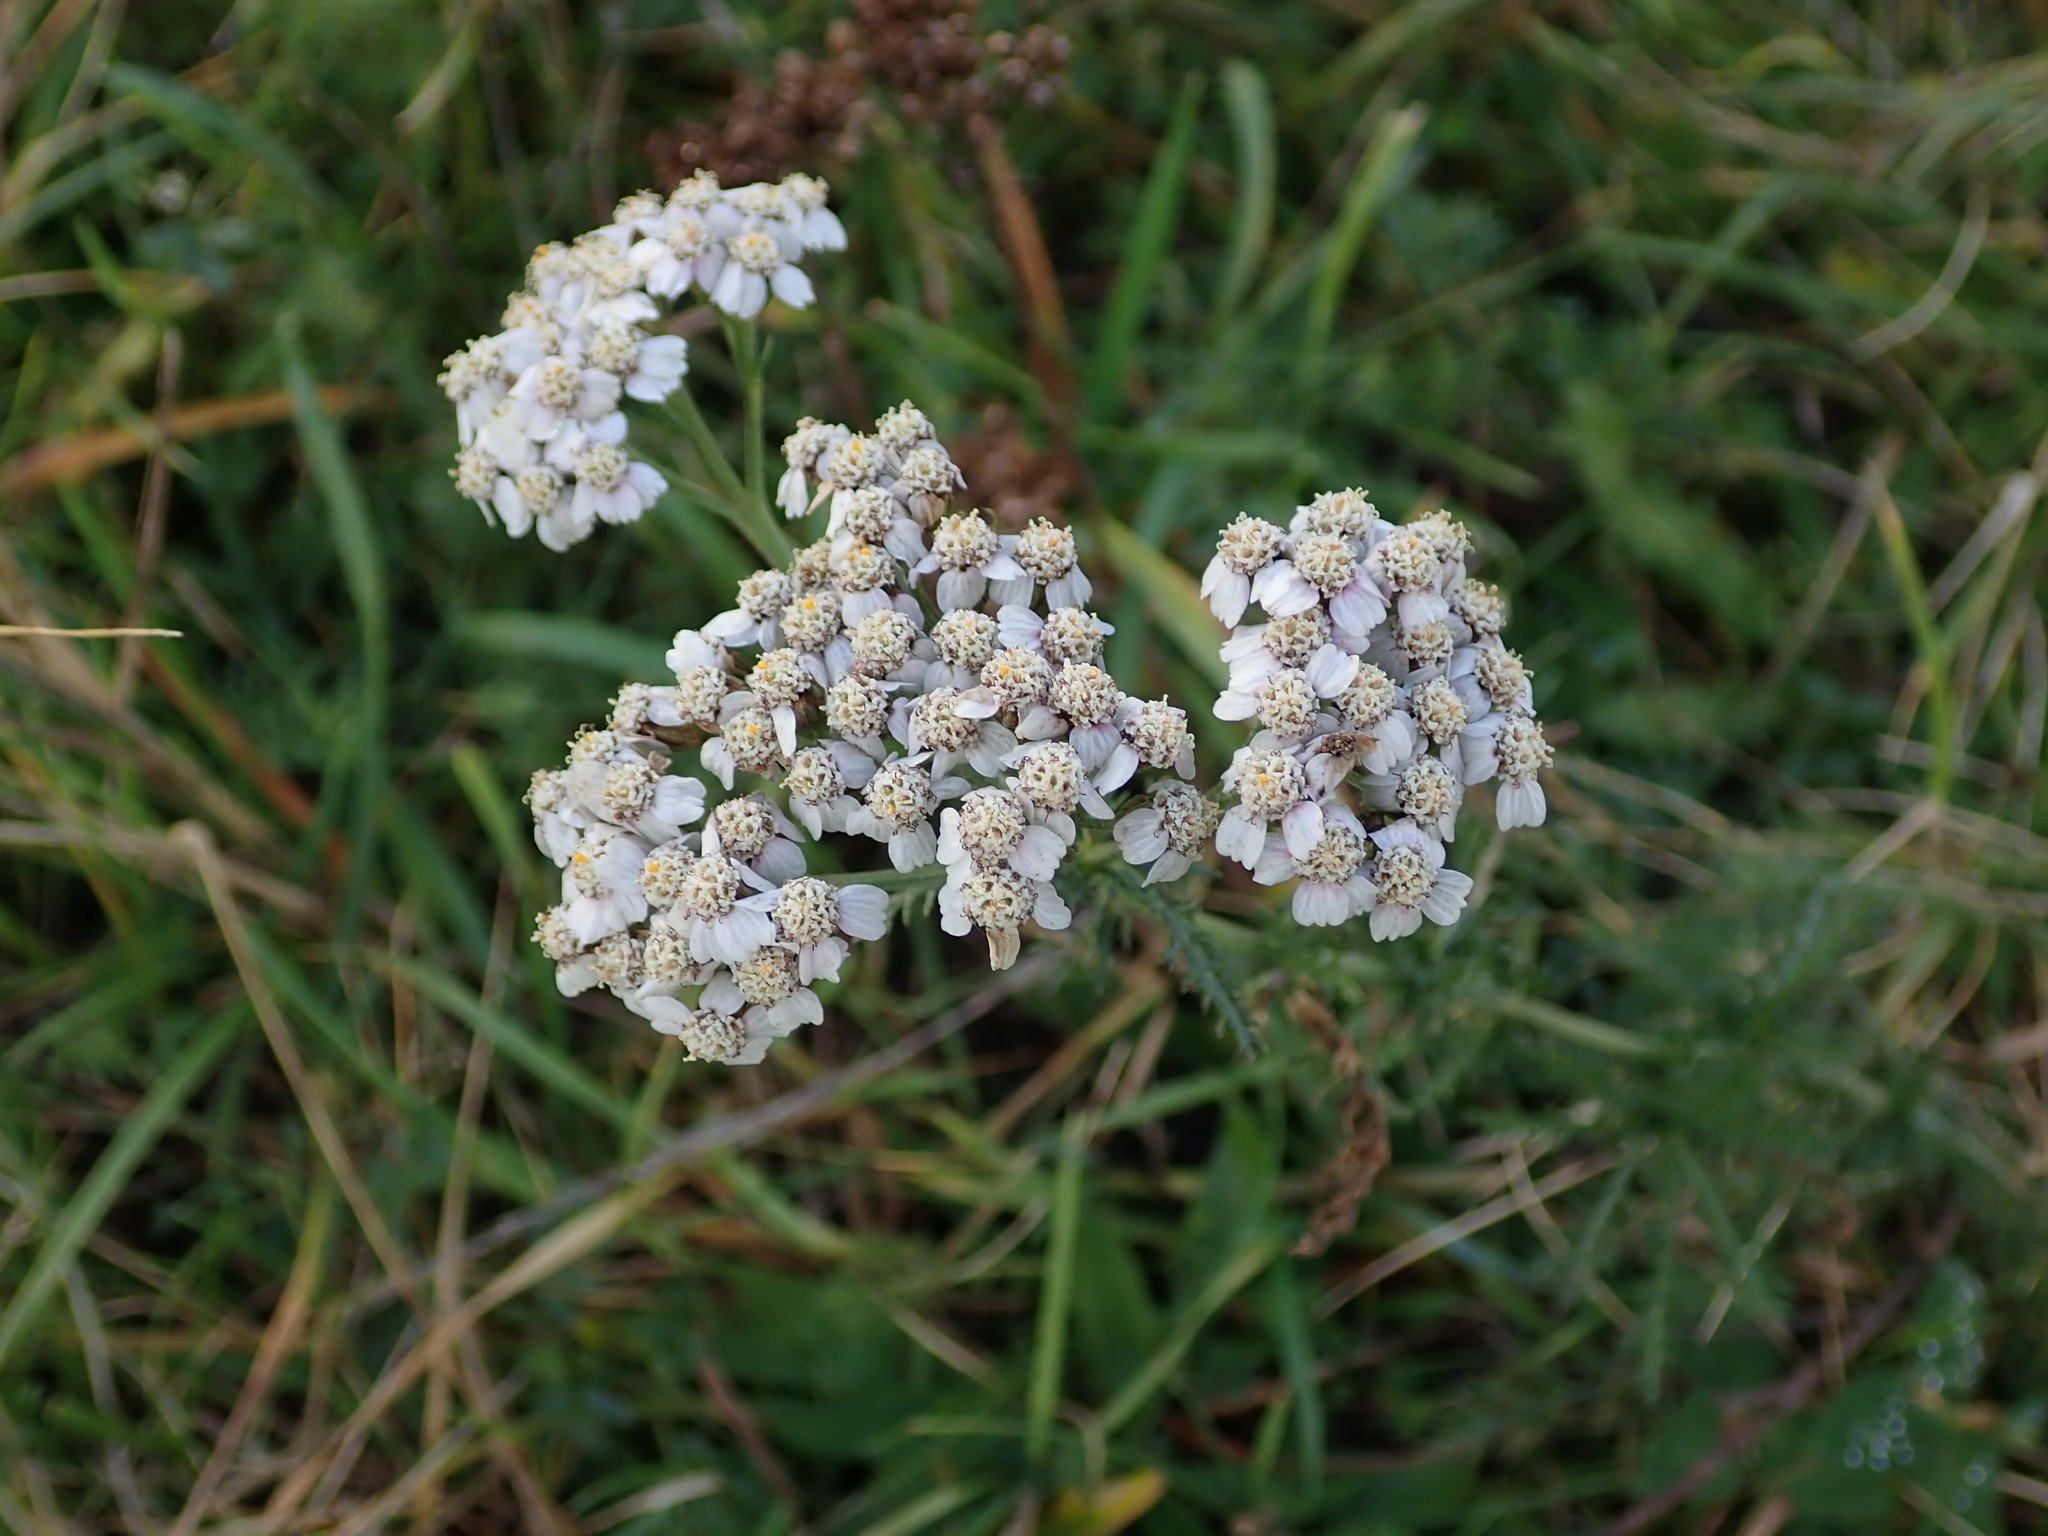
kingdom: Plantae
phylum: Tracheophyta
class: Magnoliopsida
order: Asterales
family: Asteraceae
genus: Achillea
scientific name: Achillea millefolium
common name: Yarrow
